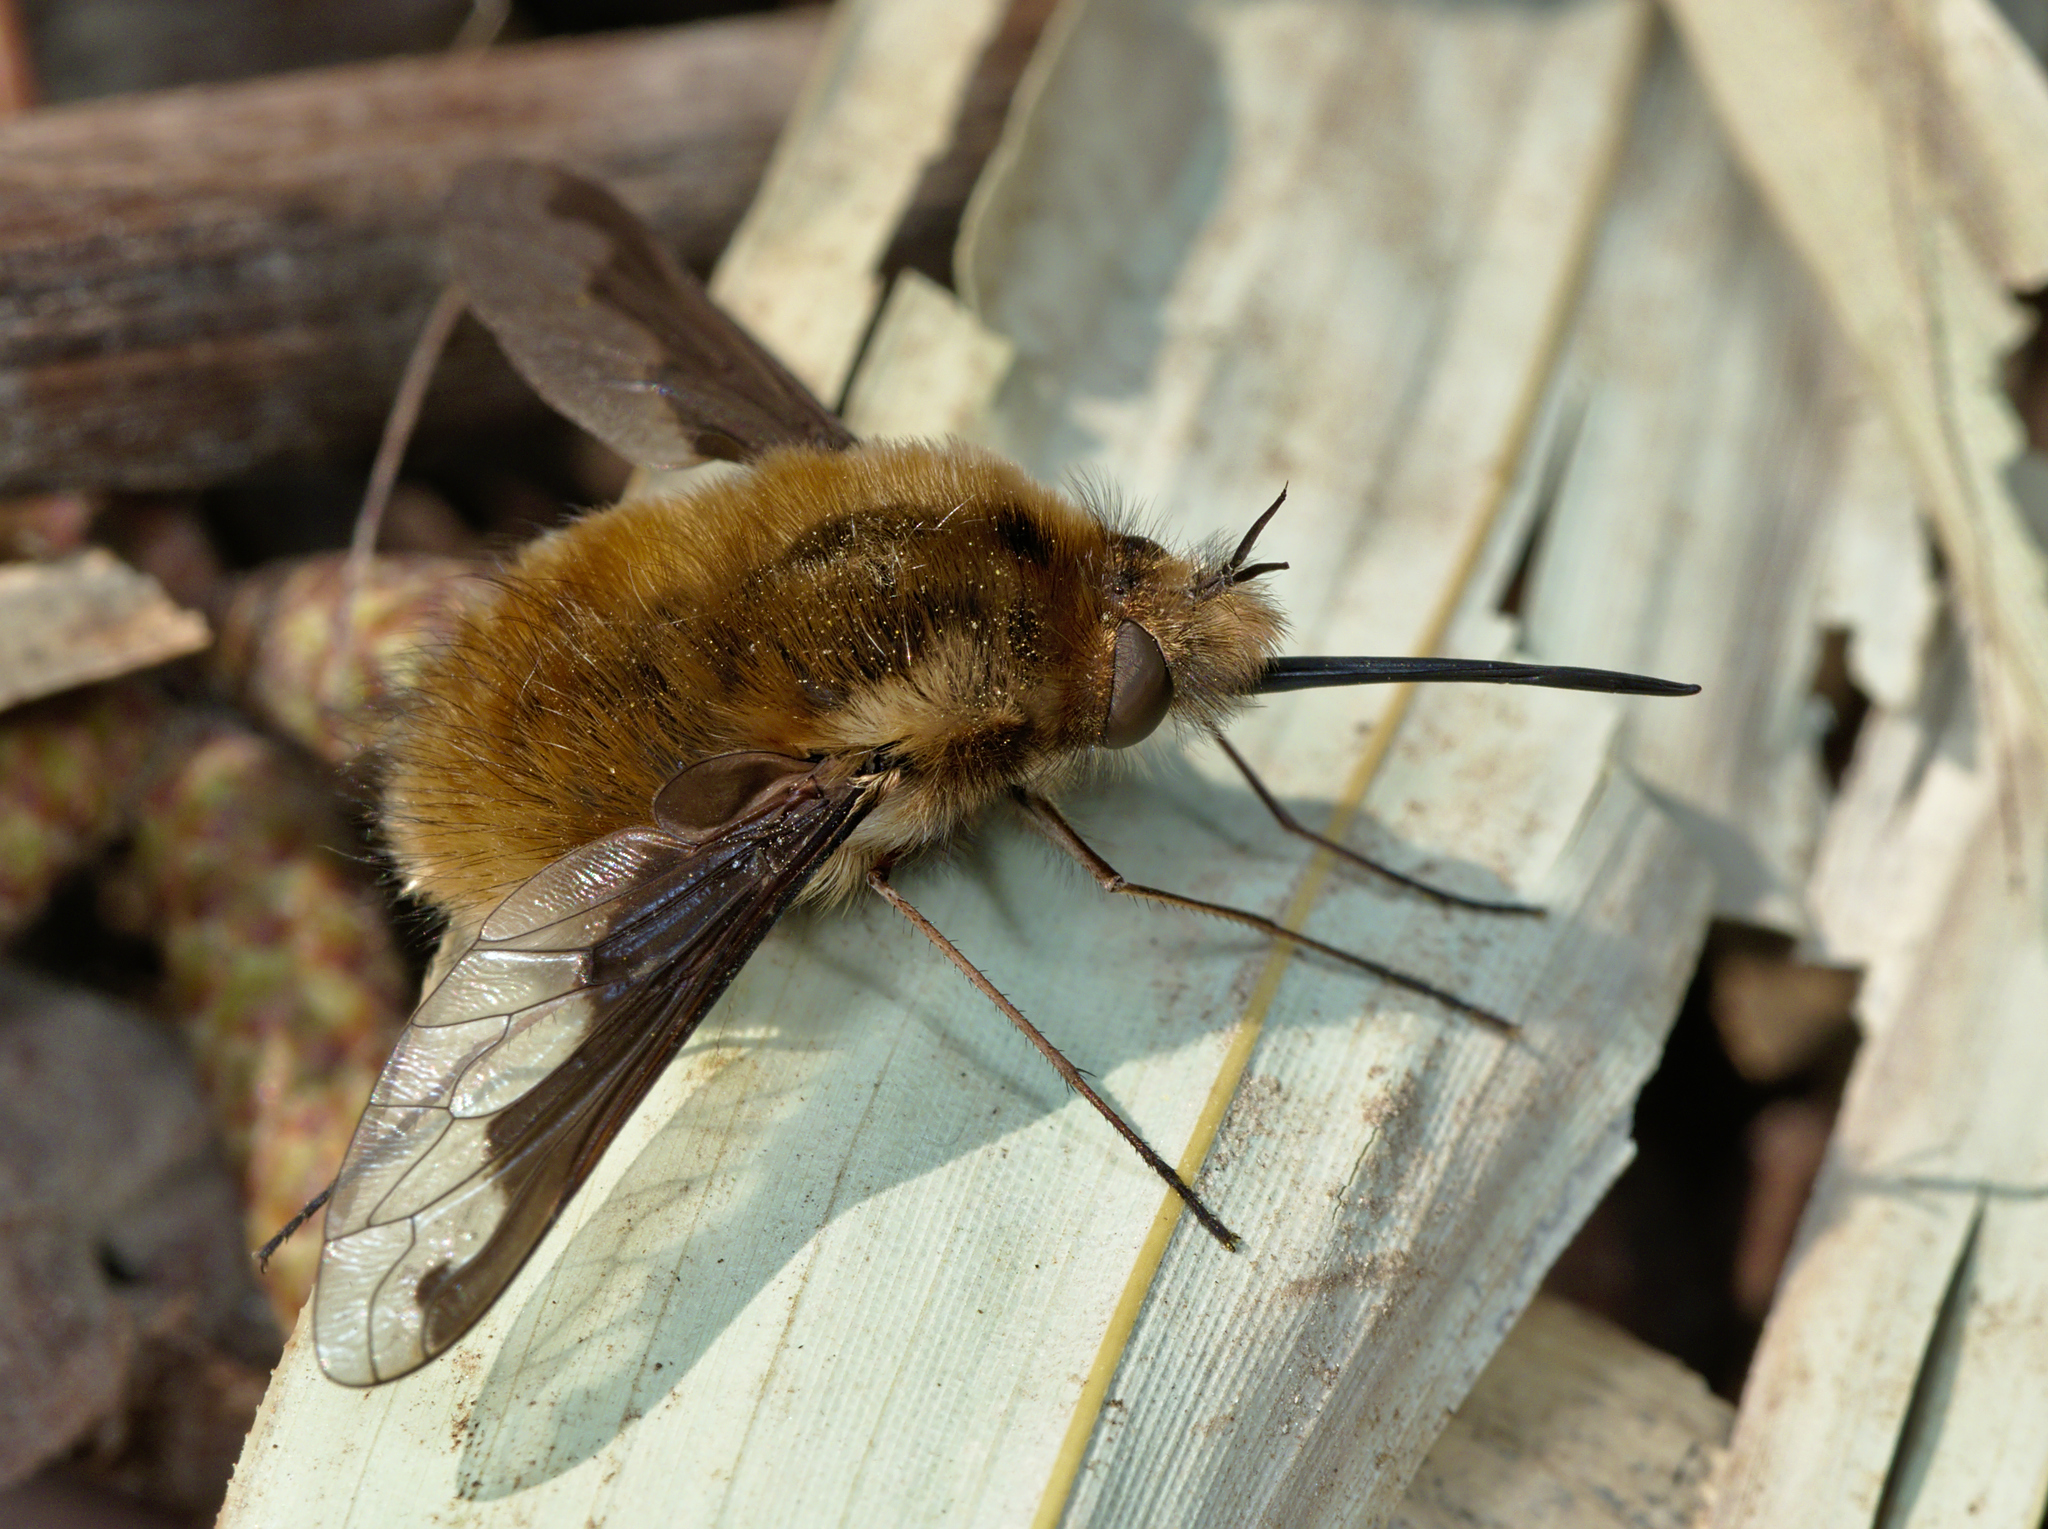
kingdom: Animalia
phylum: Arthropoda
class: Insecta
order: Diptera
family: Bombyliidae
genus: Bombylius
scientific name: Bombylius major
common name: Bee fly
